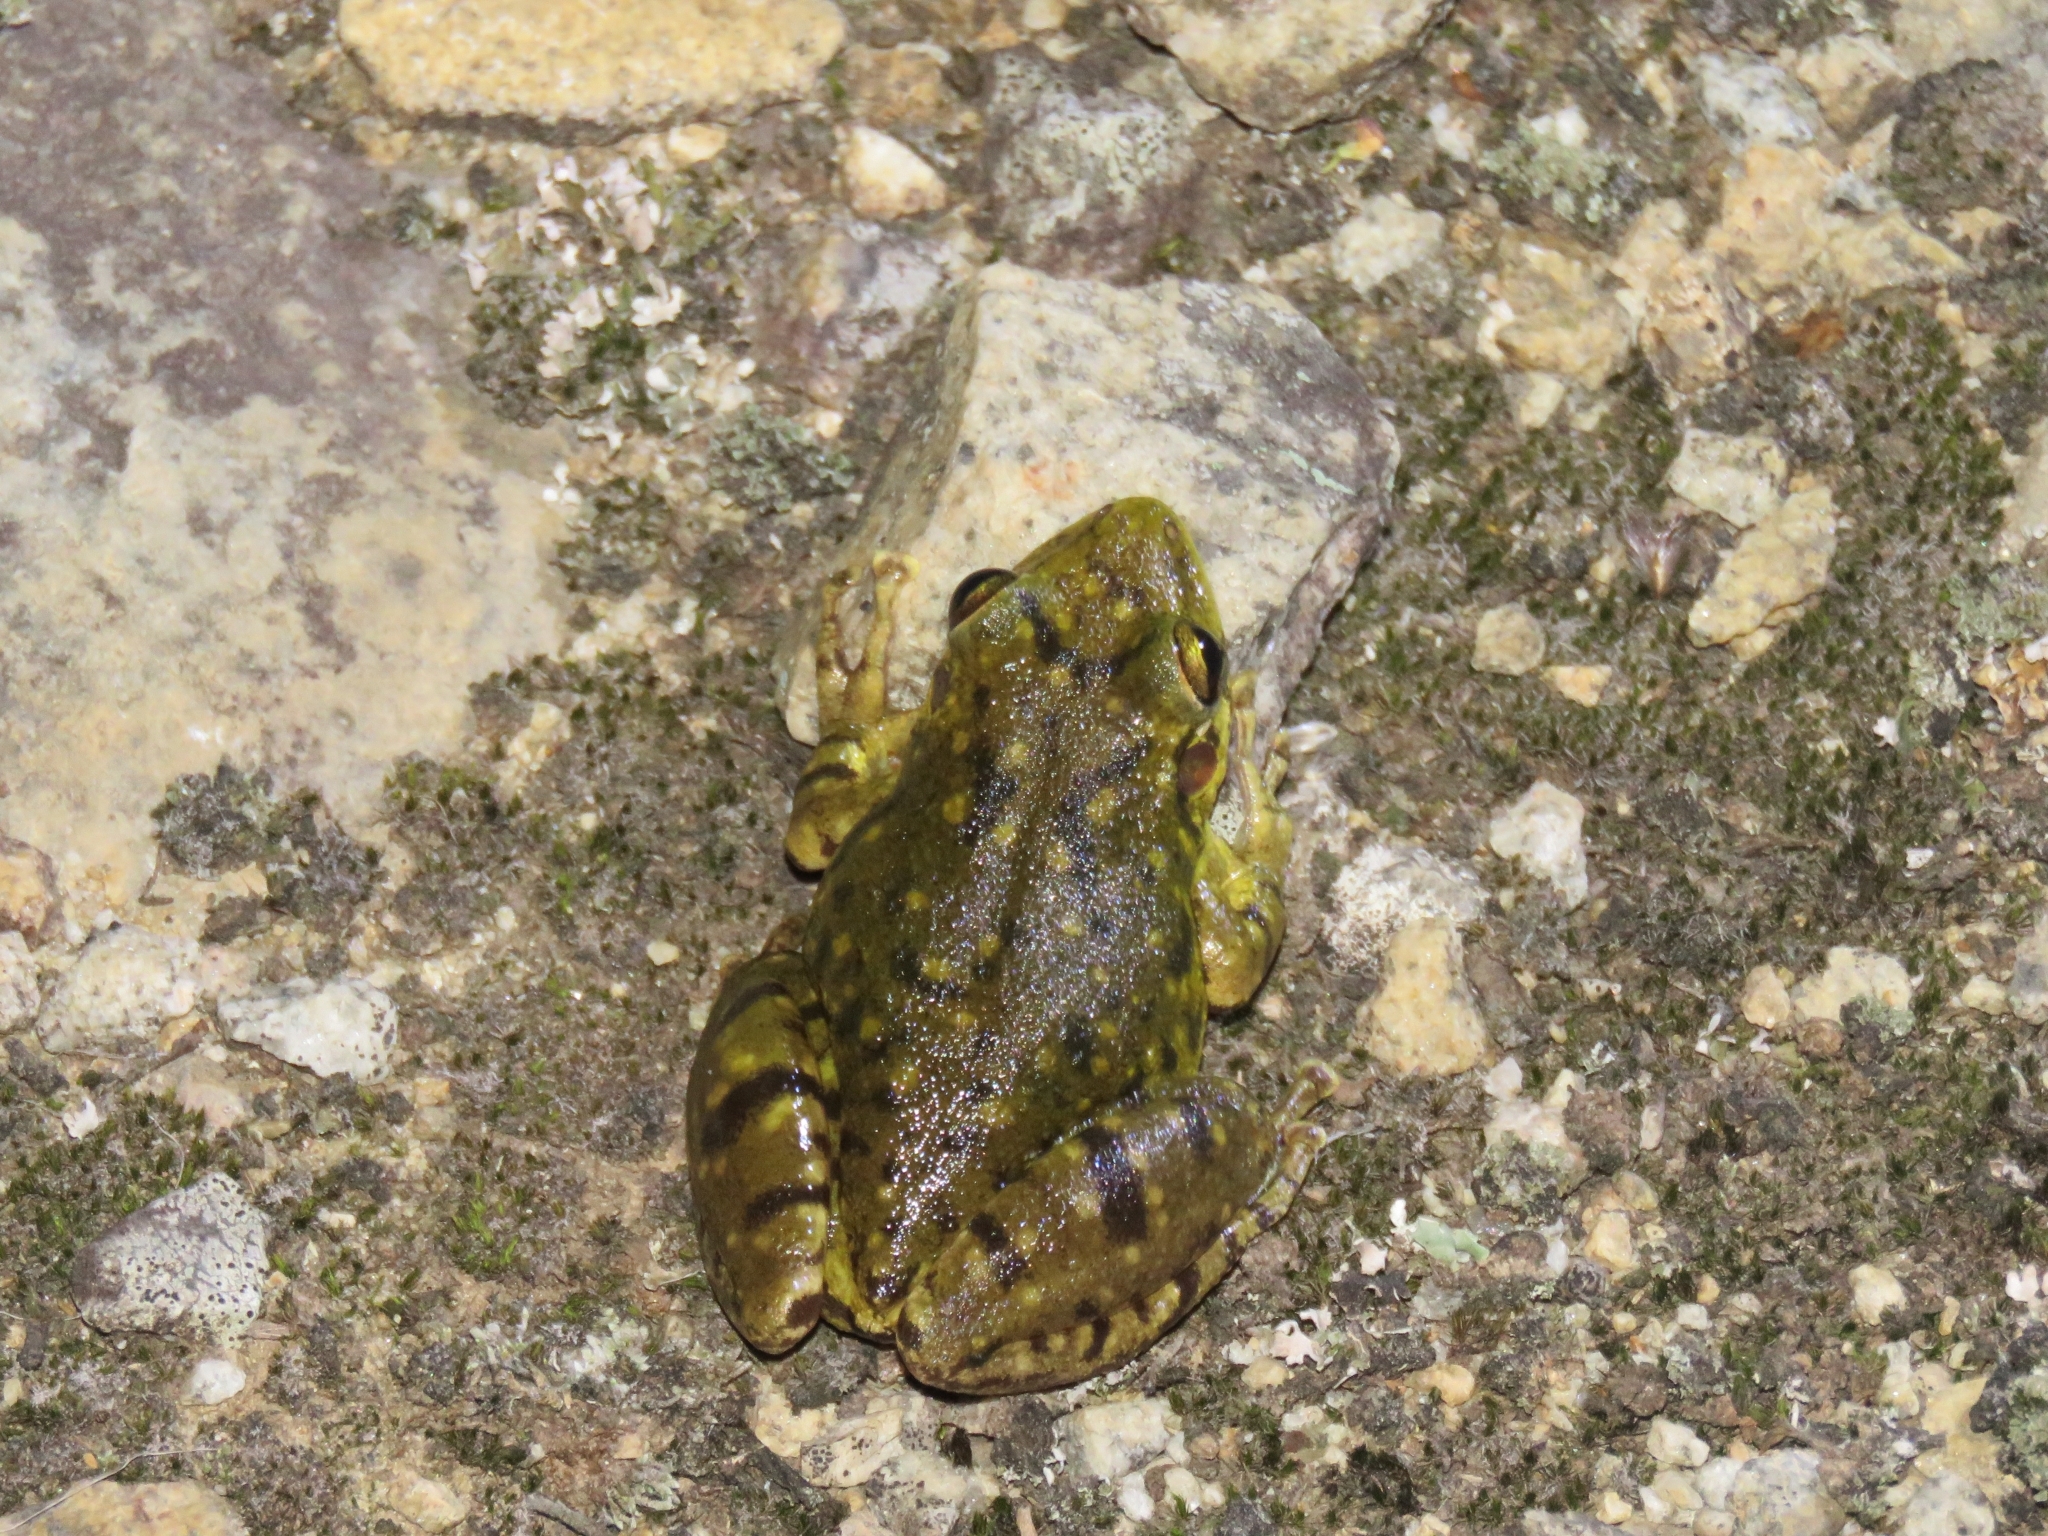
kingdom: Animalia
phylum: Chordata
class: Amphibia
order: Anura
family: Hylidae
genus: Scinax
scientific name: Scinax fuscovarius
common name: Fuscous-blotched treefrog
